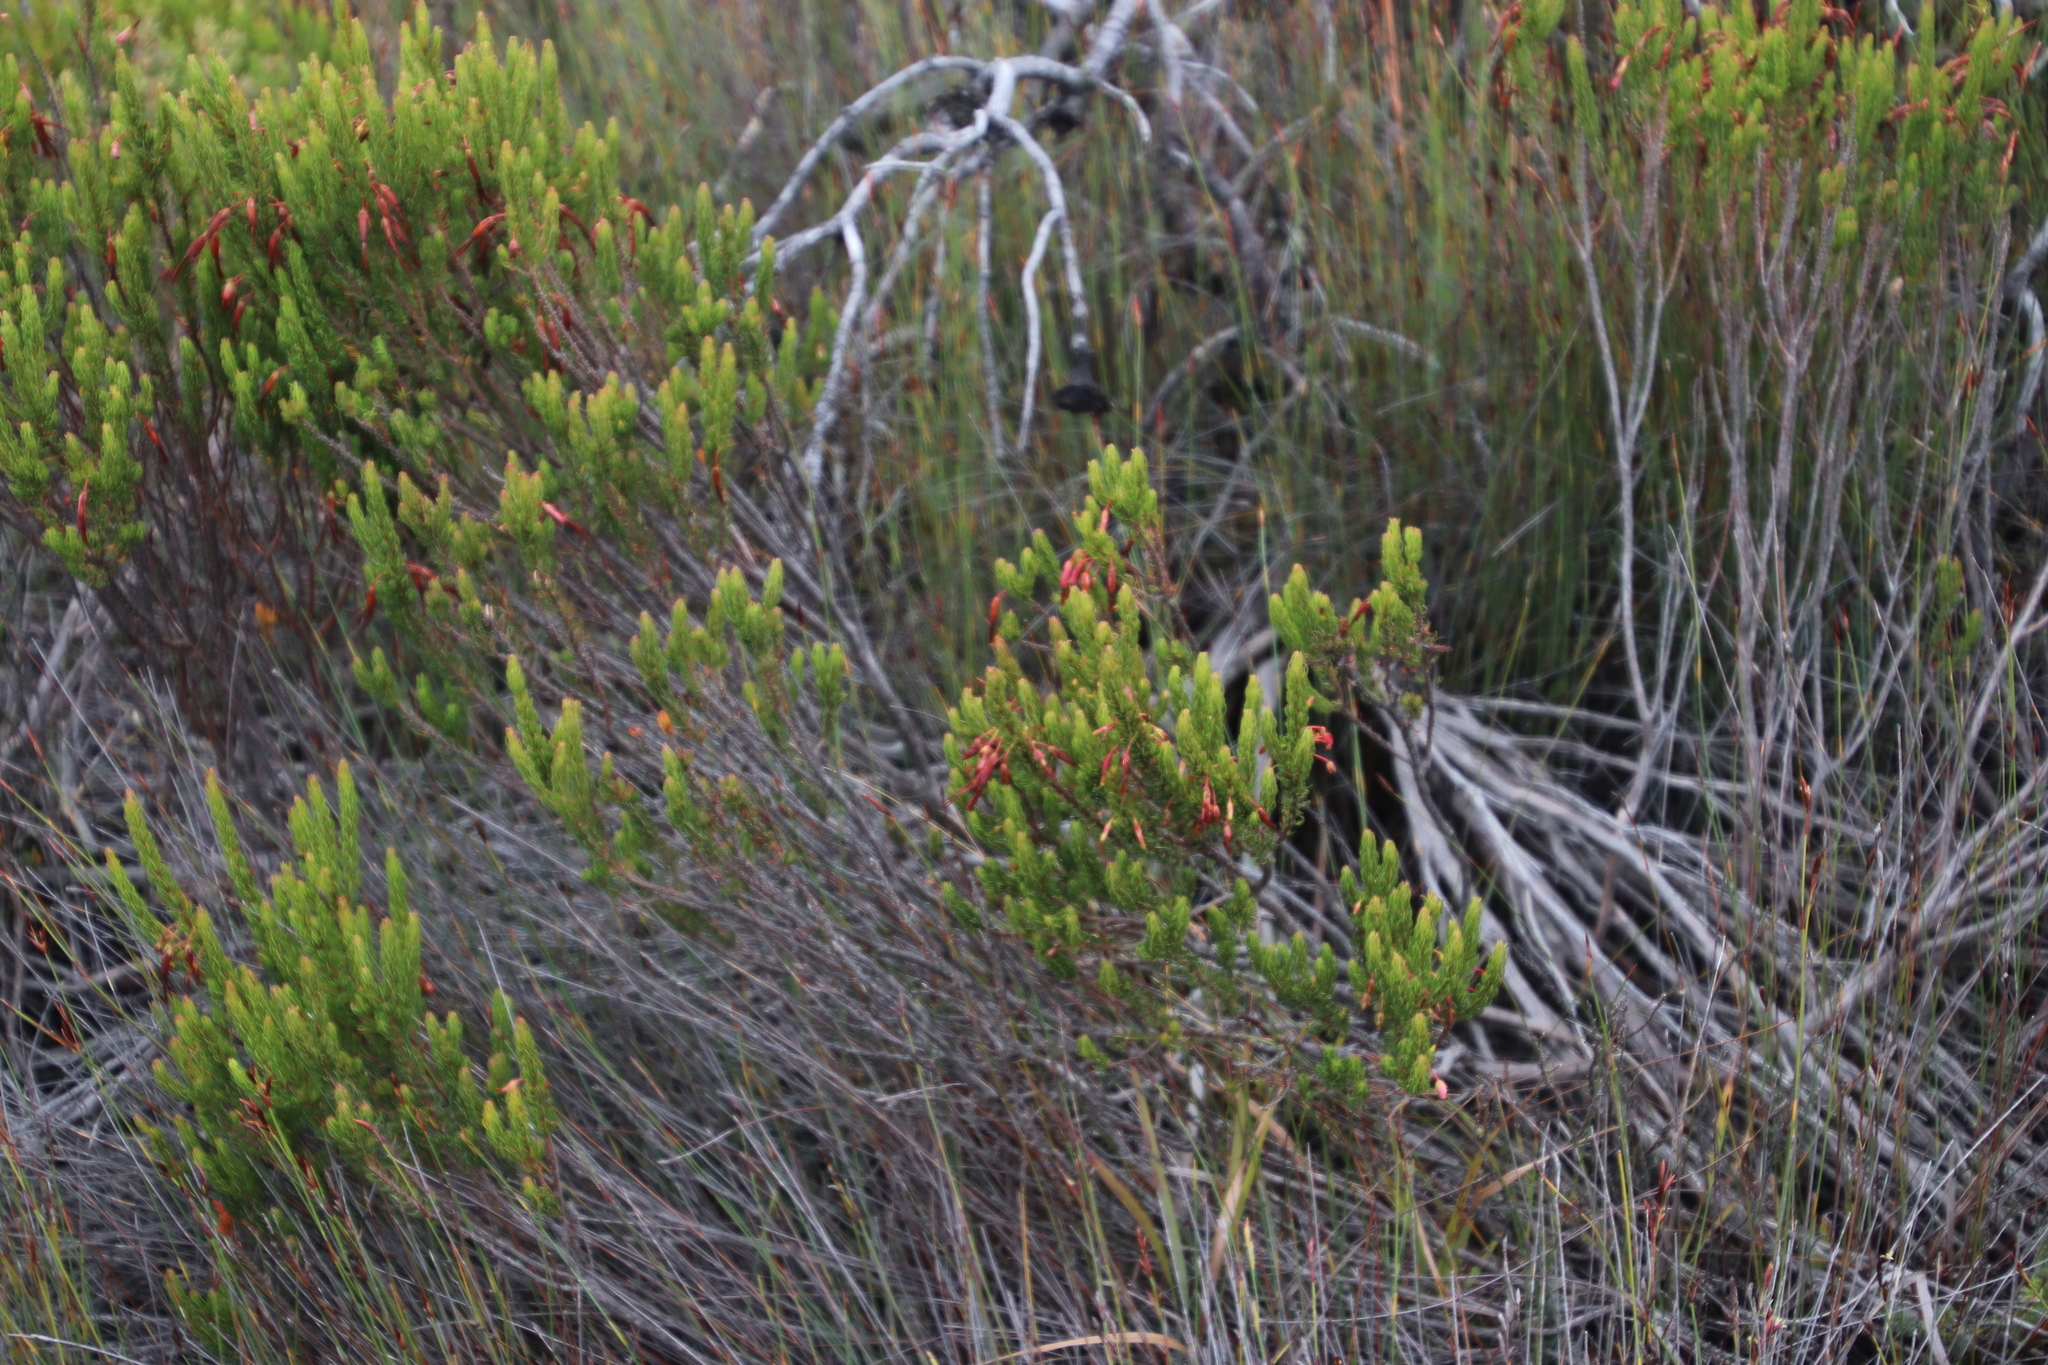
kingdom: Plantae
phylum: Tracheophyta
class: Magnoliopsida
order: Ericales
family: Ericaceae
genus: Erica
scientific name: Erica plukenetii
